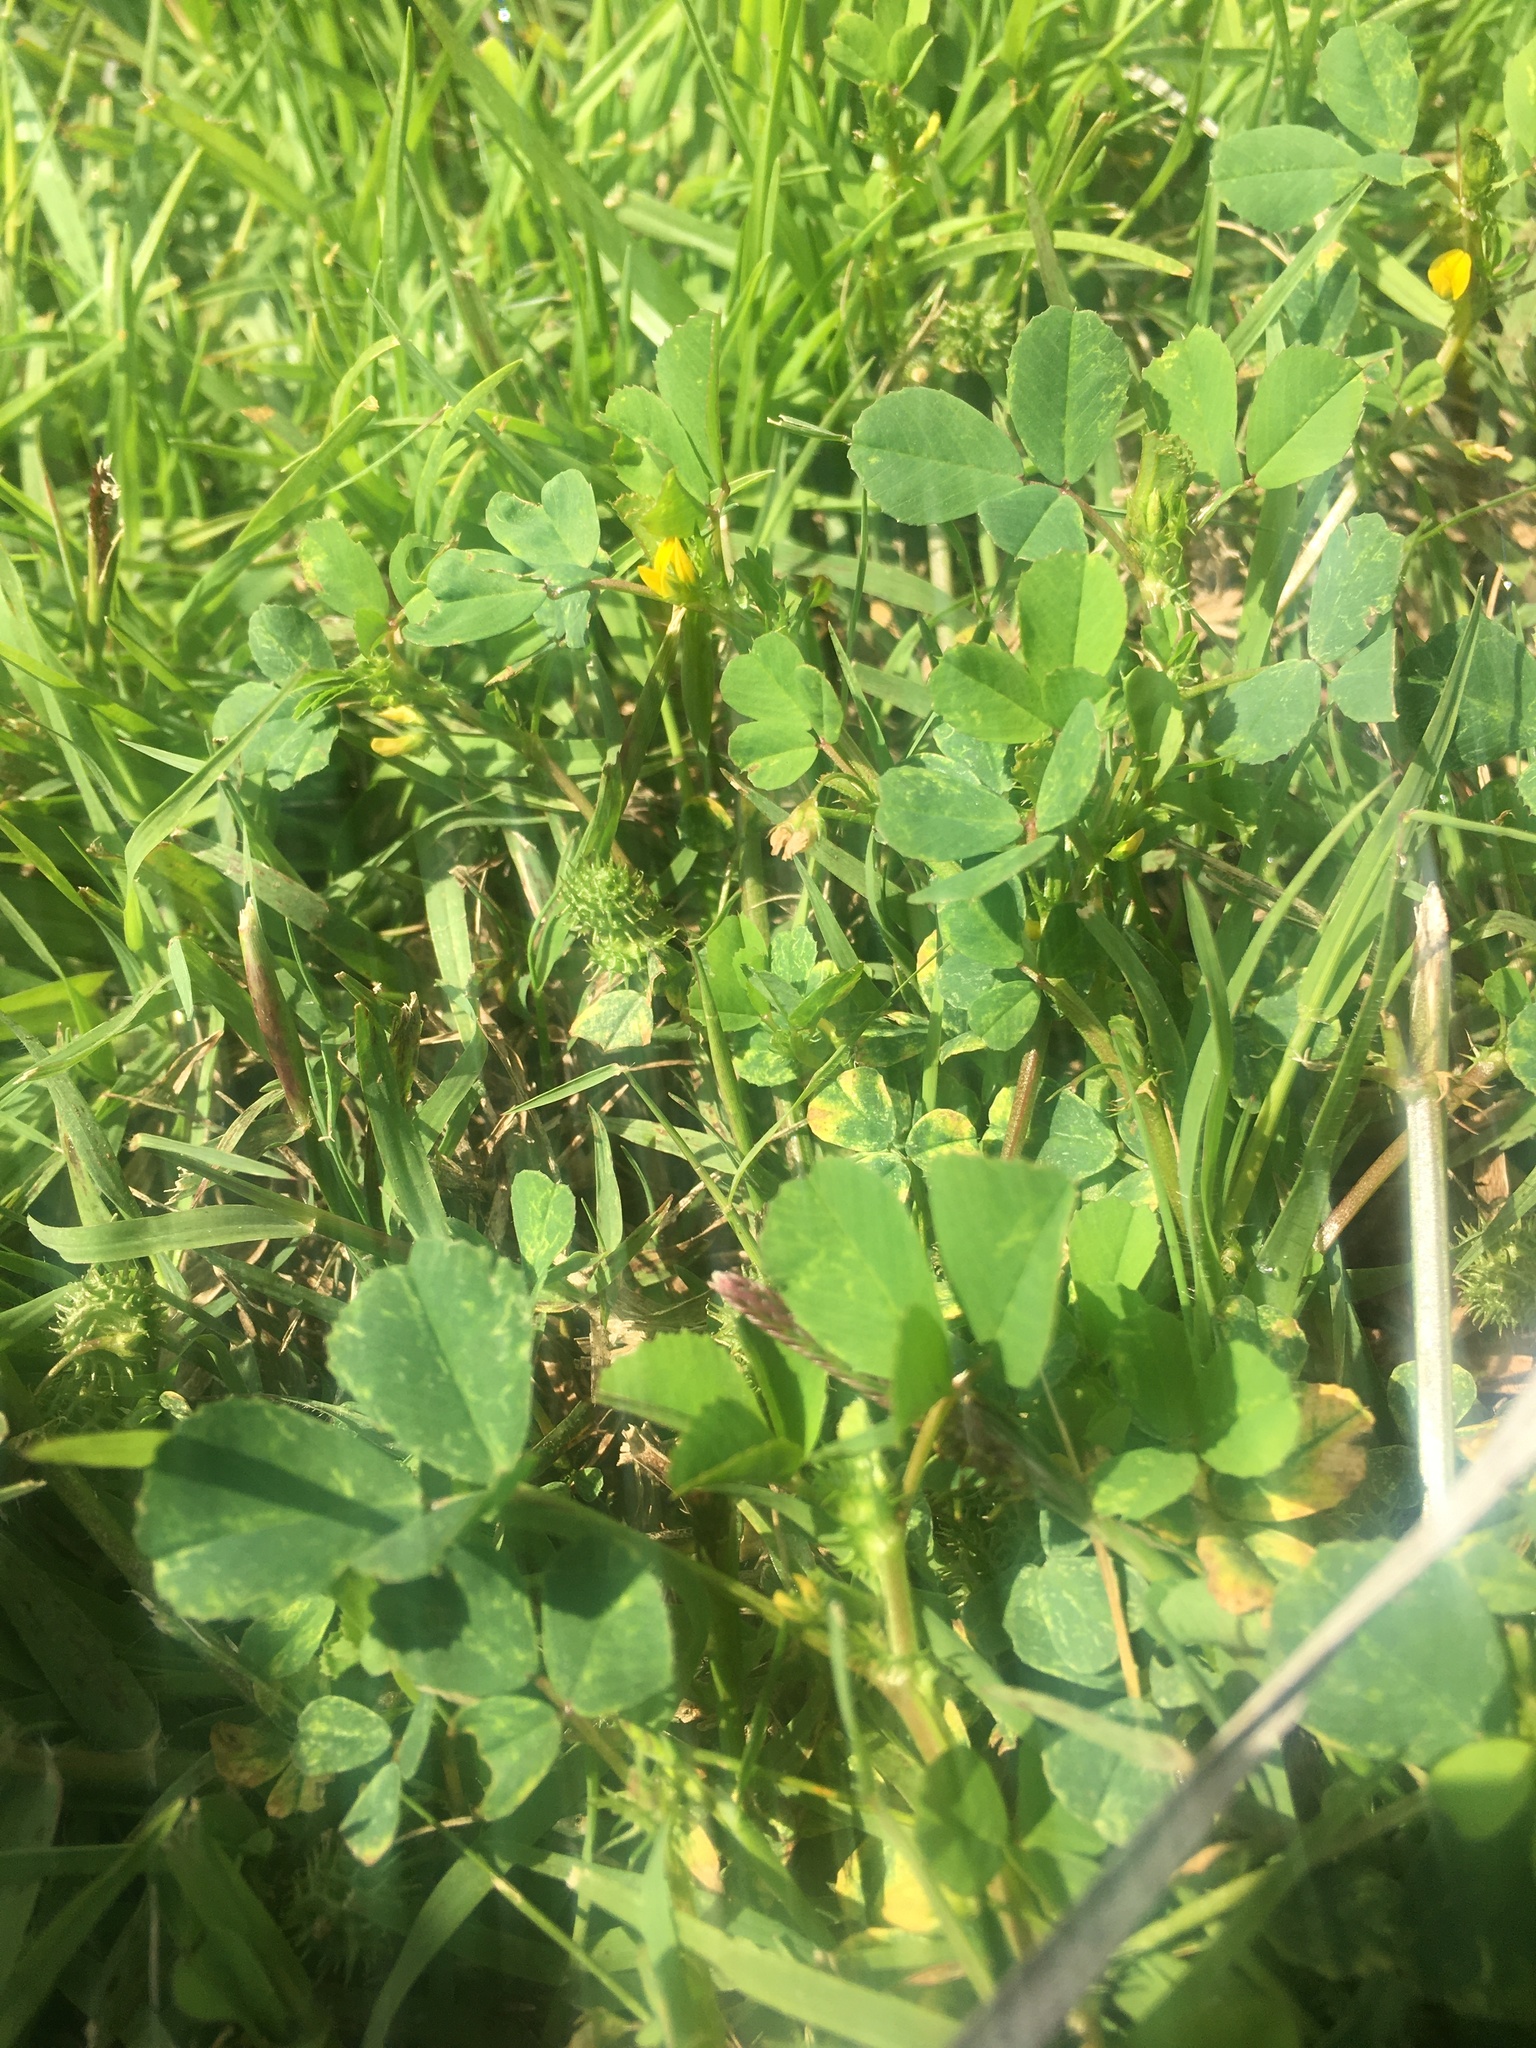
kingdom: Plantae
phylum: Tracheophyta
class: Magnoliopsida
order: Fabales
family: Fabaceae
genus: Medicago
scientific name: Medicago polymorpha
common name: Burclover
